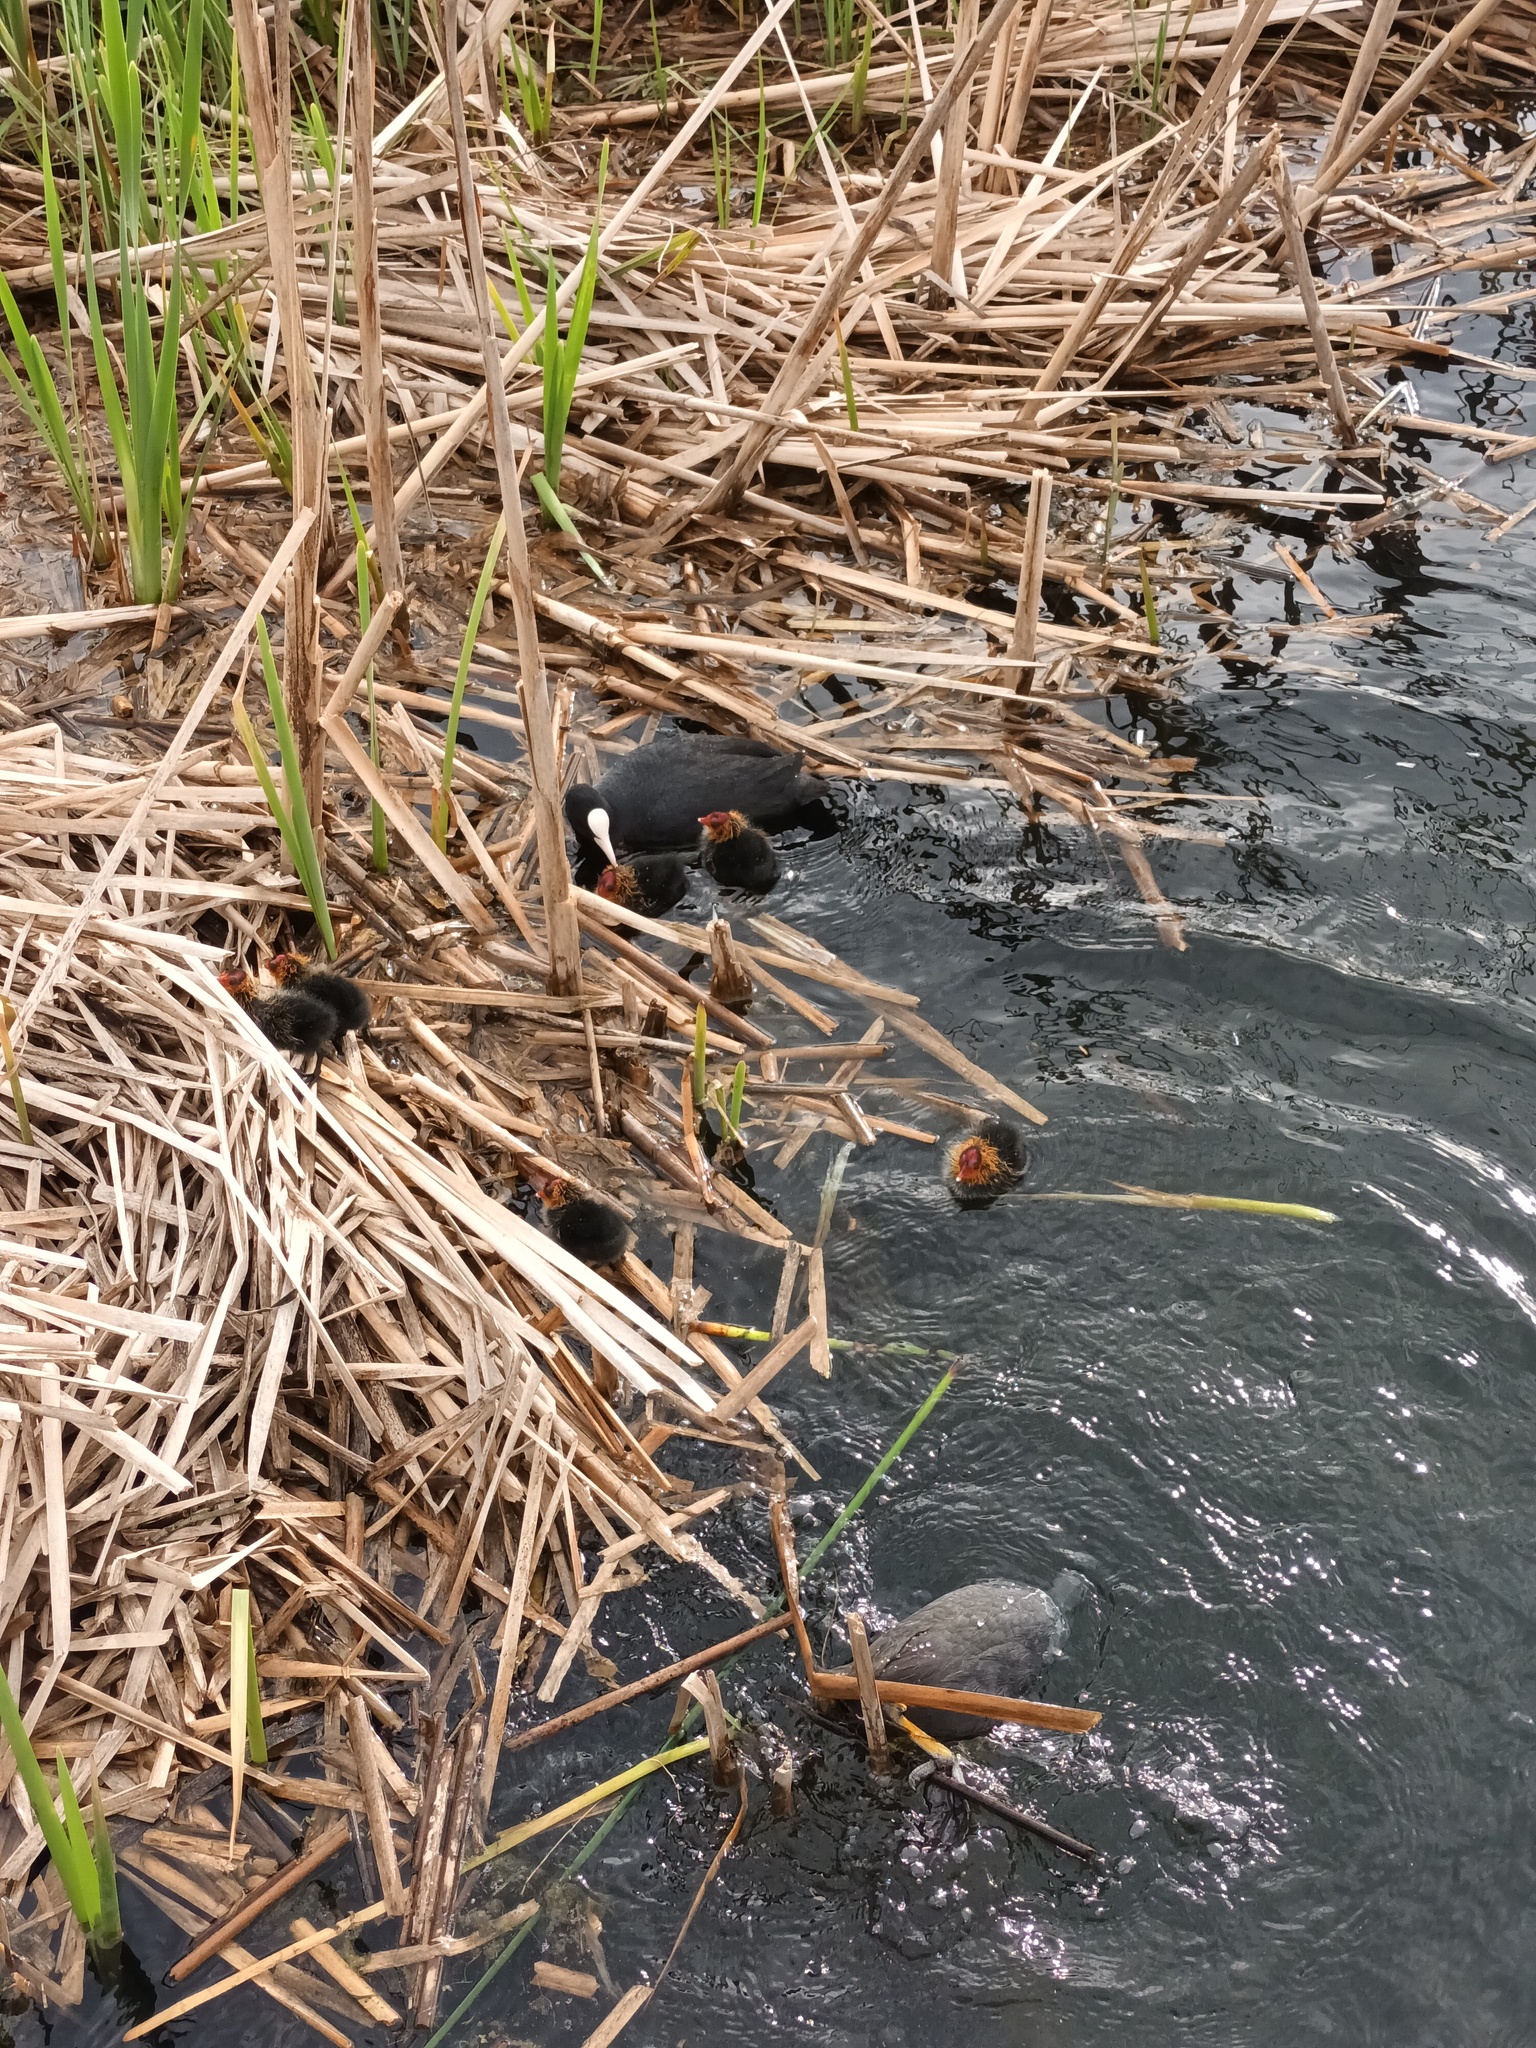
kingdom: Animalia
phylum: Chordata
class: Aves
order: Gruiformes
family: Rallidae
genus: Fulica
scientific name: Fulica atra
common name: Eurasian coot
